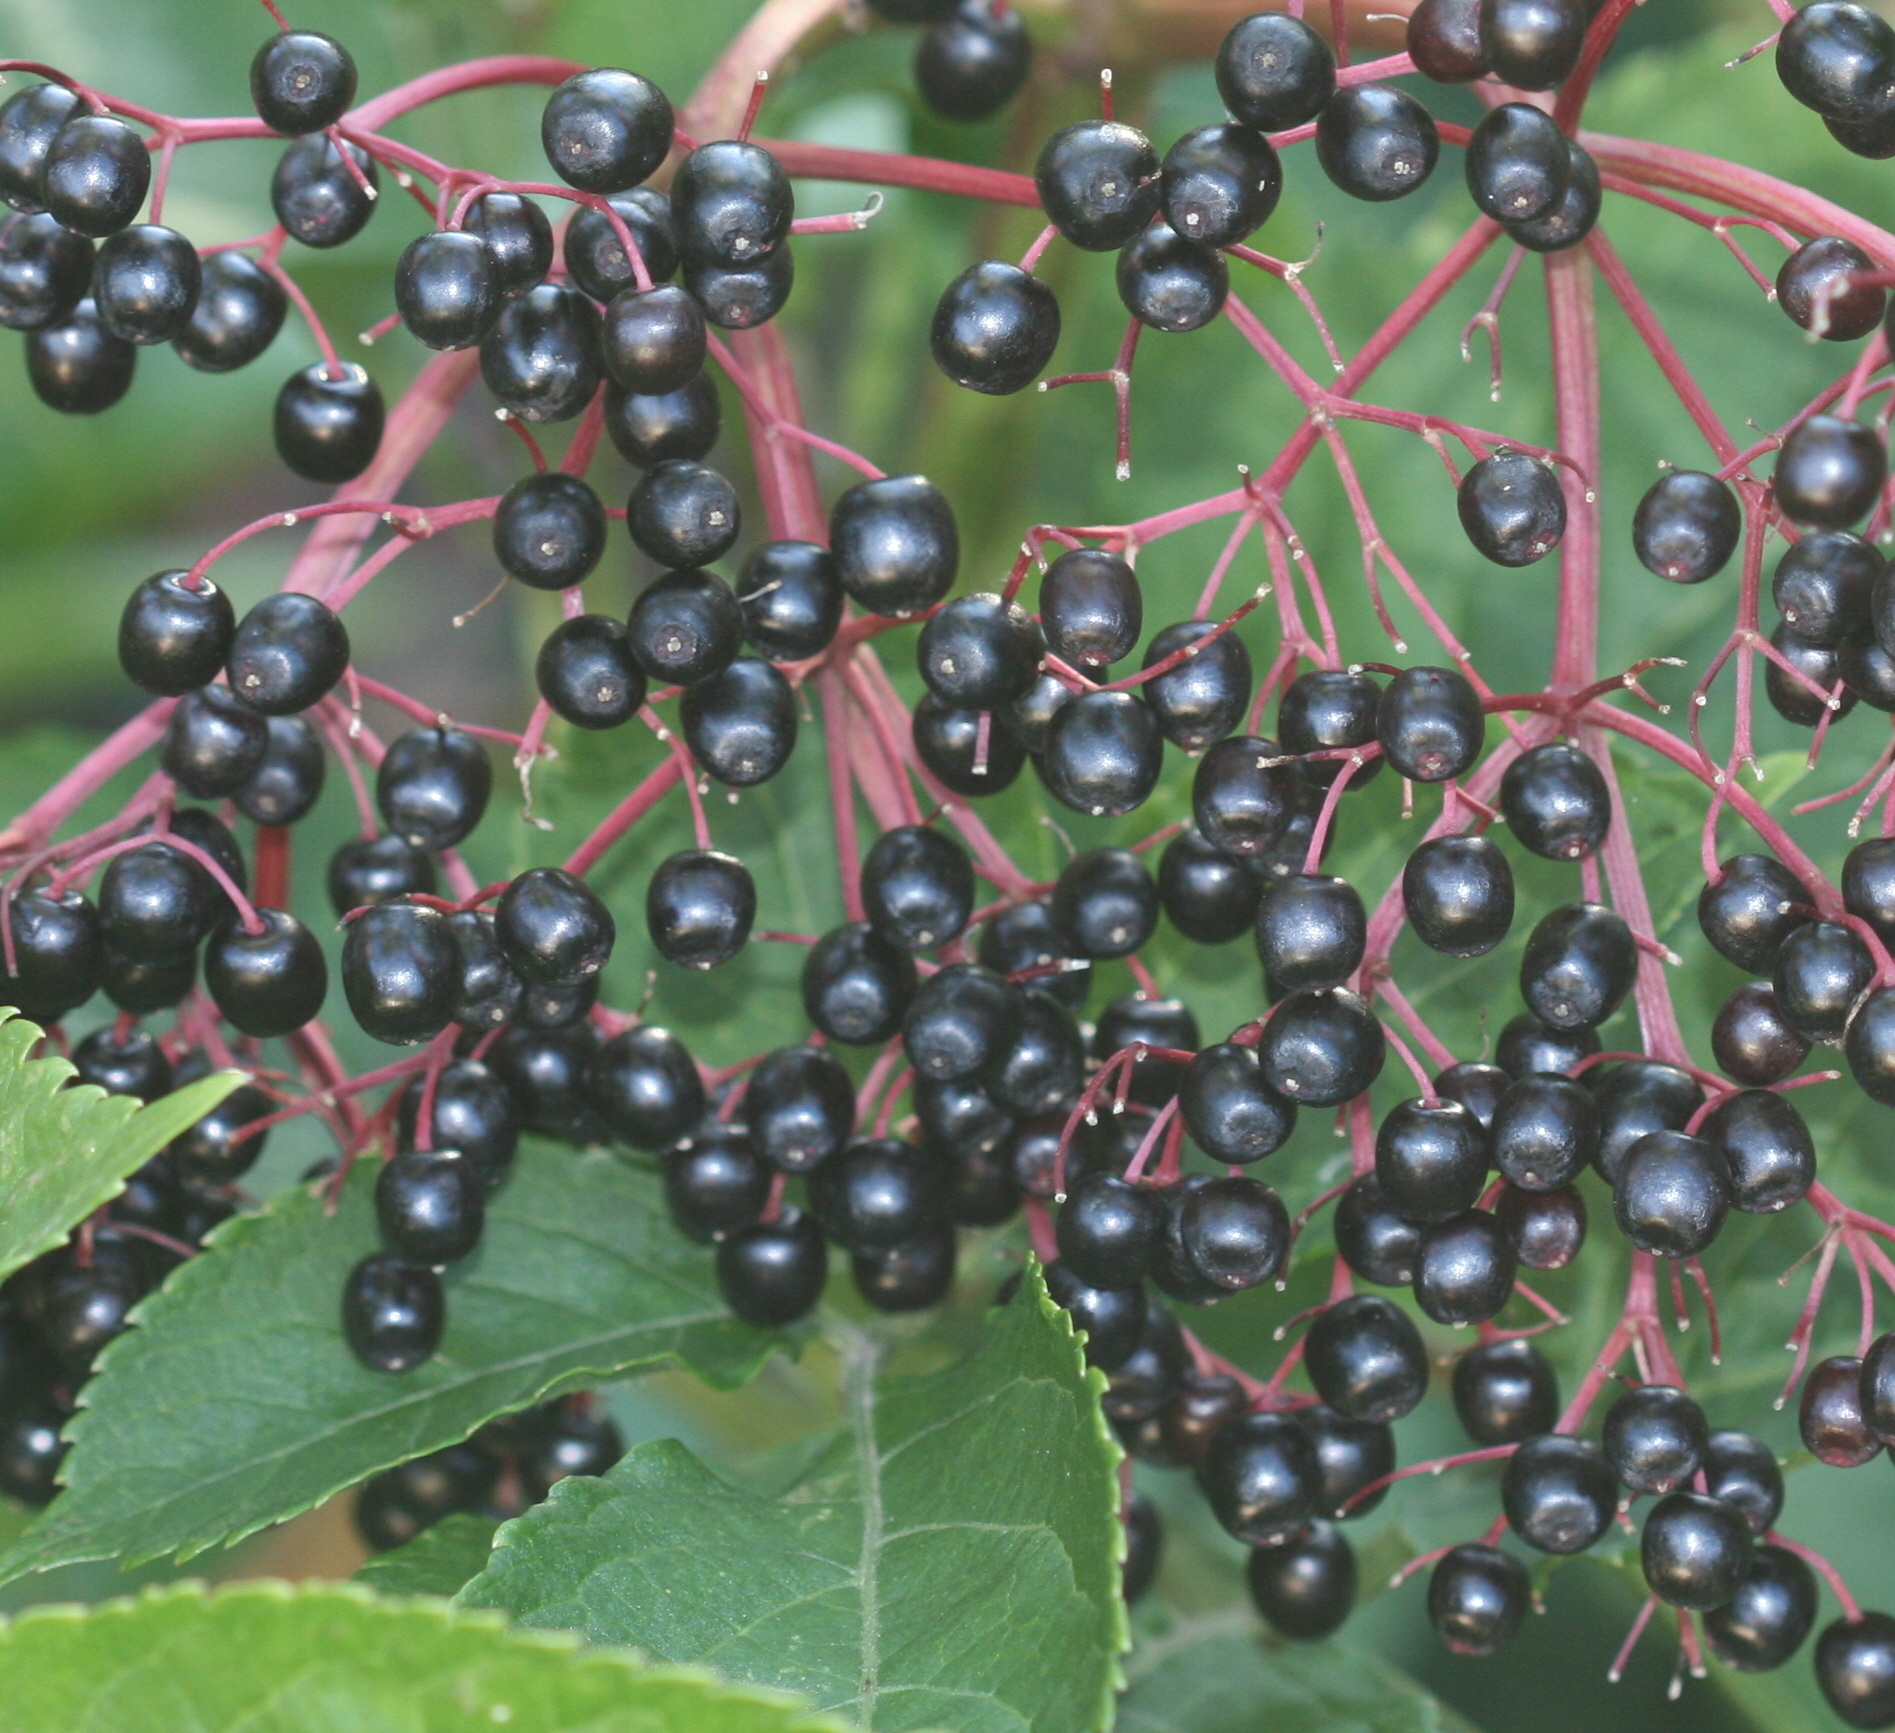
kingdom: Plantae
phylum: Tracheophyta
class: Magnoliopsida
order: Dipsacales
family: Viburnaceae
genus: Sambucus
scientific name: Sambucus nigra
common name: Elder
